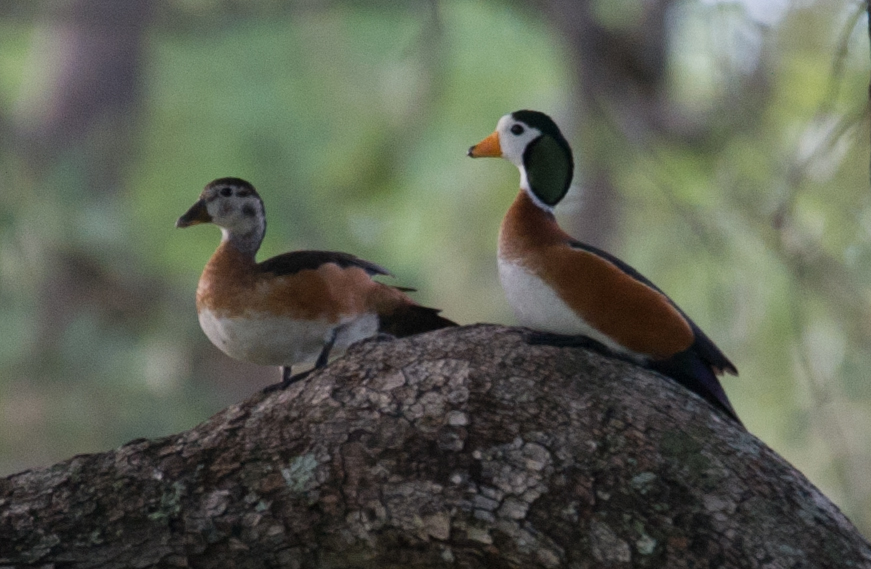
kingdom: Animalia
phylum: Chordata
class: Aves
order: Anseriformes
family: Anatidae
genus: Nettapus
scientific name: Nettapus auritus
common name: African pygmy-goose
